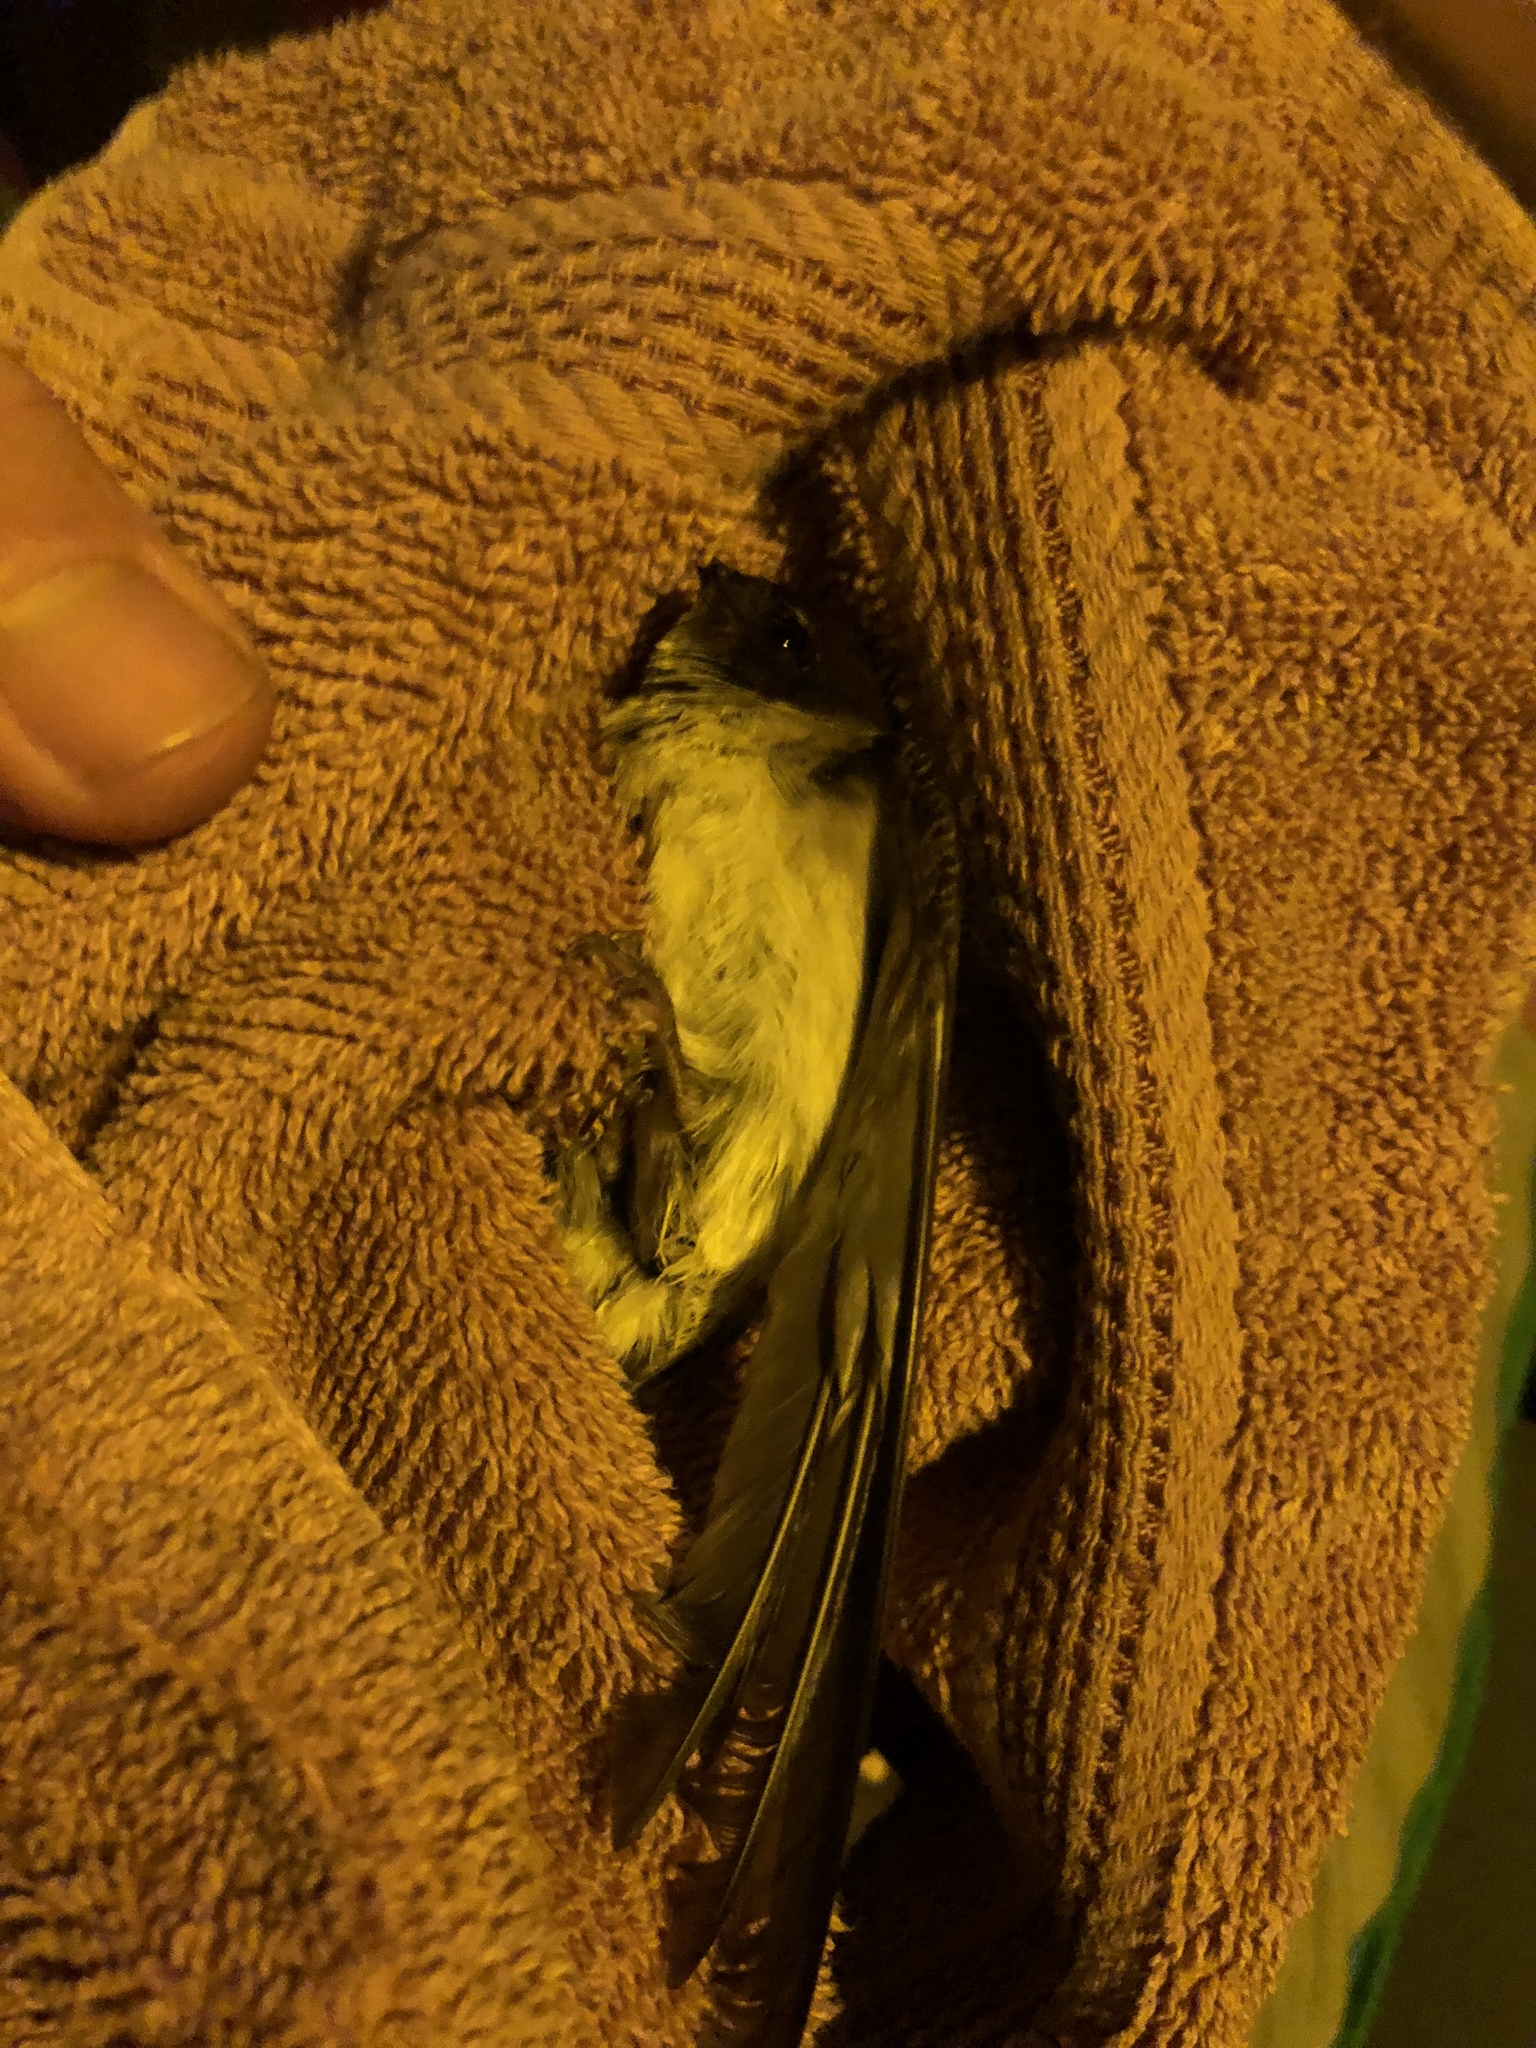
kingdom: Animalia
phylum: Chordata
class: Aves
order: Passeriformes
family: Hirundinidae
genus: Tachycineta
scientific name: Tachycineta thalassina
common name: Violet-green swallow
